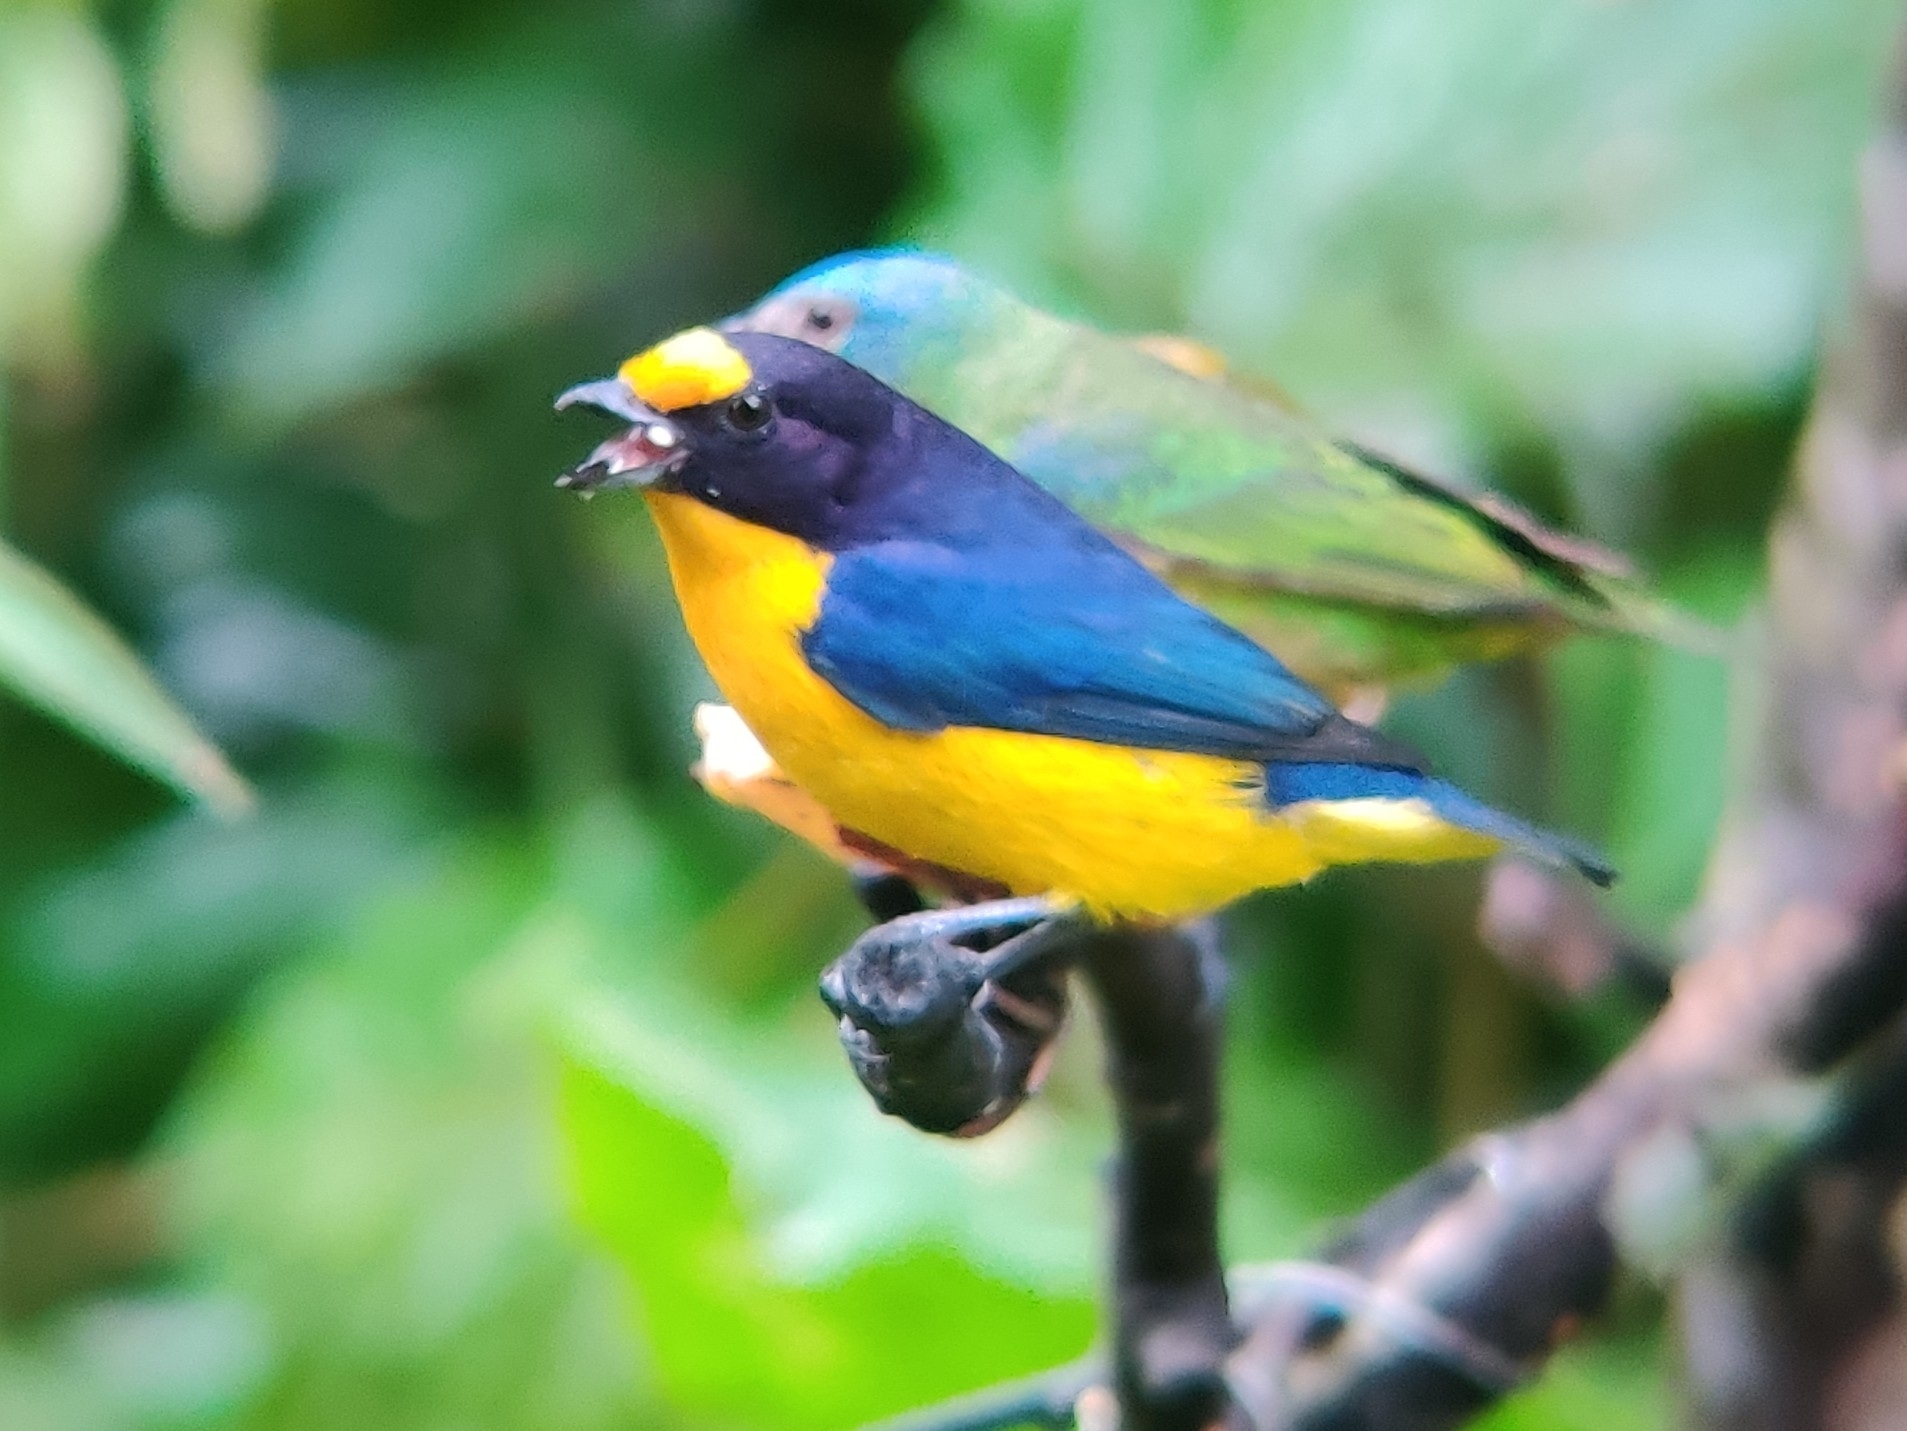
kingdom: Animalia
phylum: Chordata
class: Aves
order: Passeriformes
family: Fringillidae
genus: Euphonia
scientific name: Euphonia violacea
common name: Violaceous euphonia
